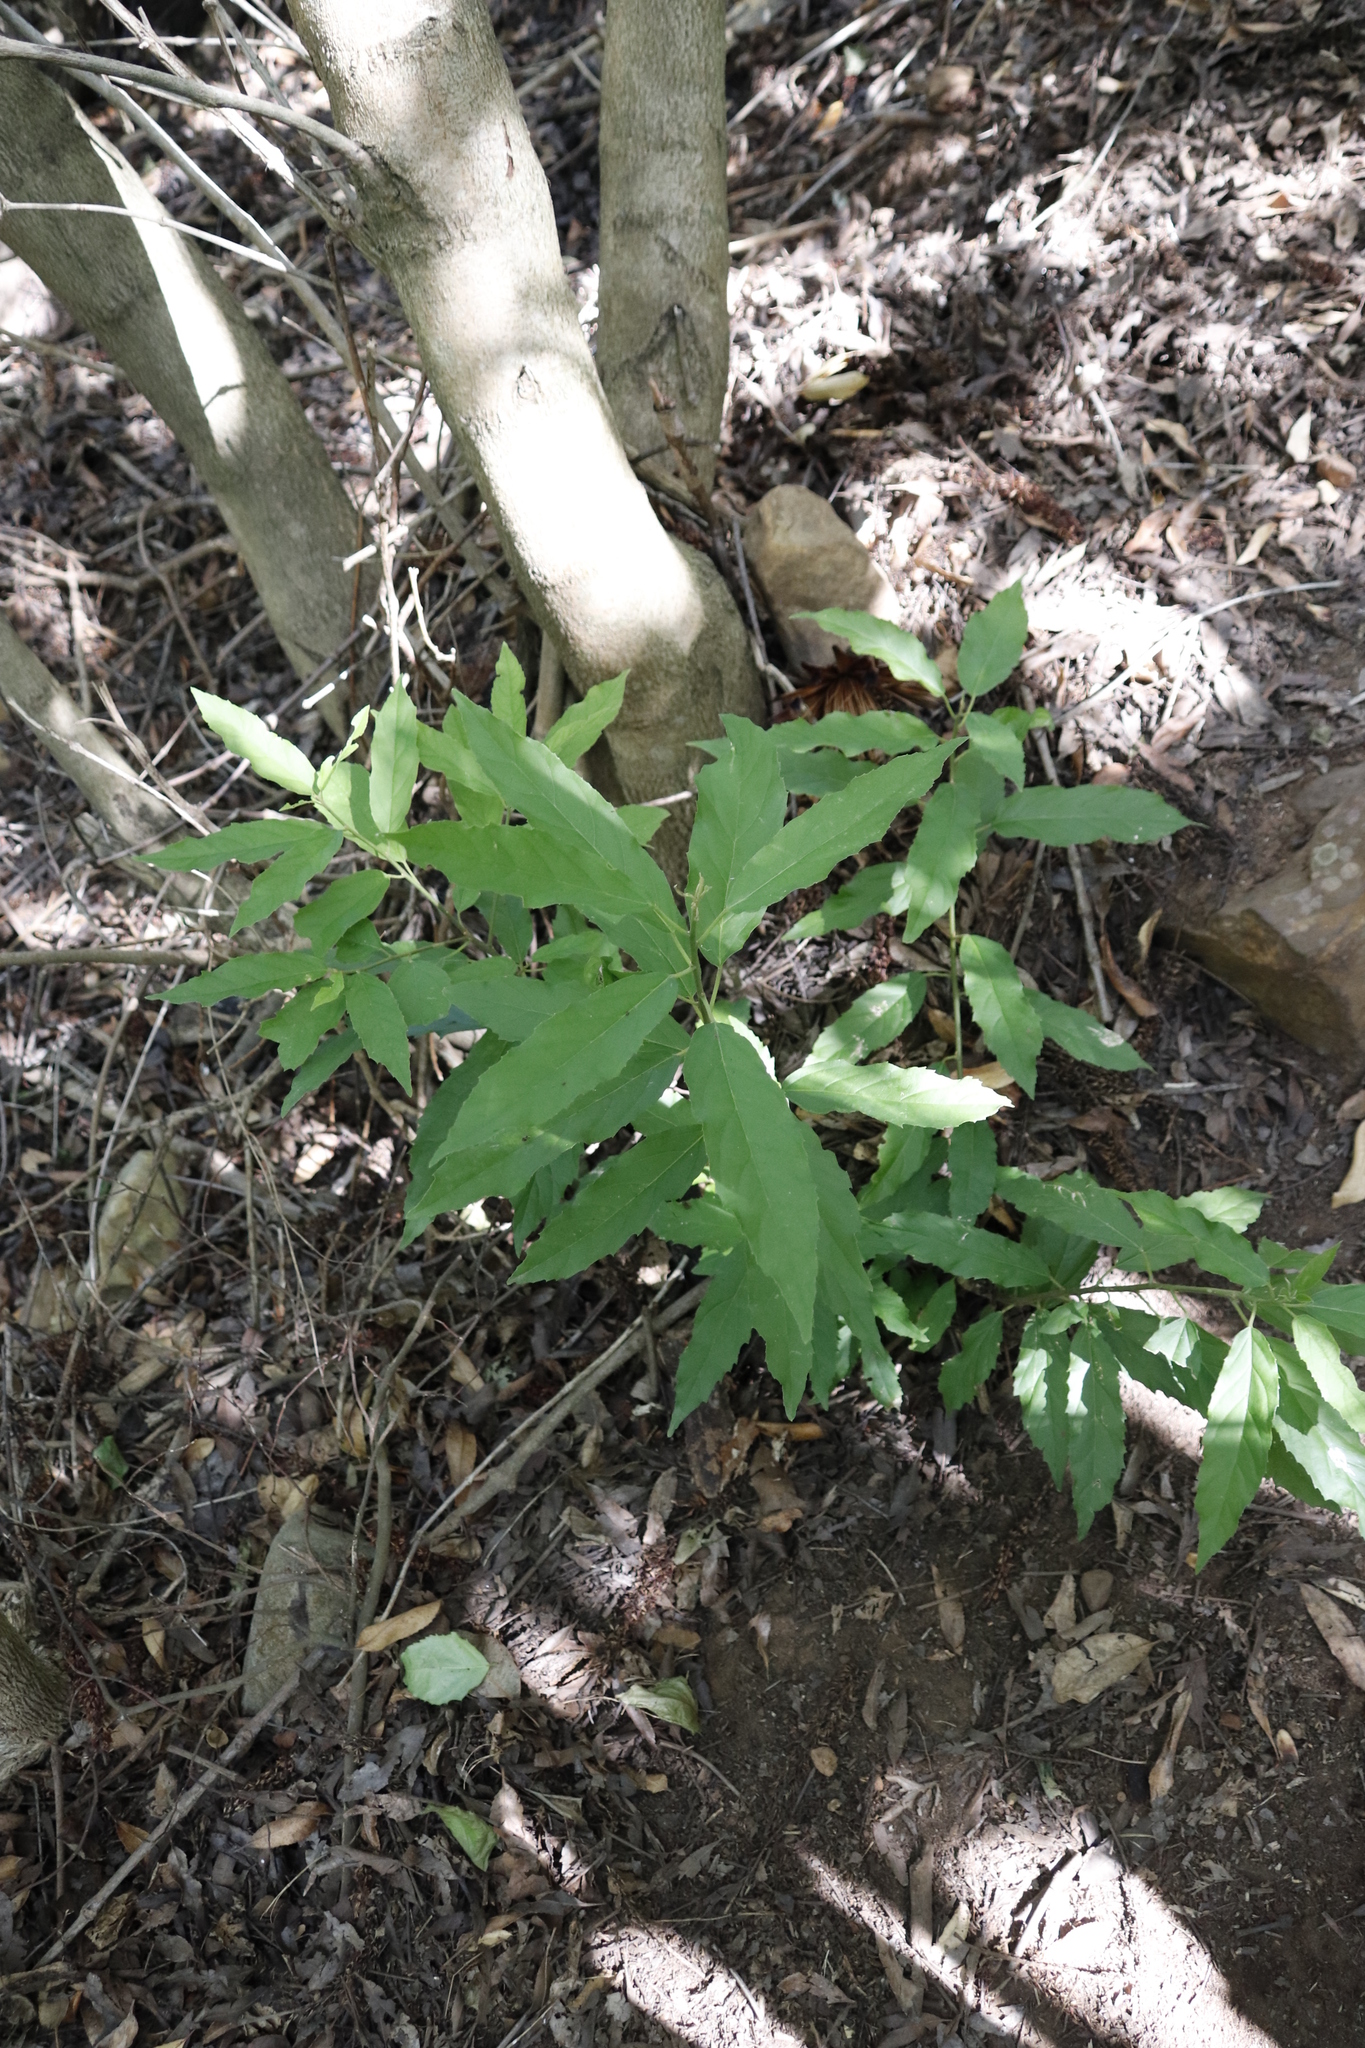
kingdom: Plantae
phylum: Tracheophyta
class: Magnoliopsida
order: Malpighiales
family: Achariaceae
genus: Kiggelaria
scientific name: Kiggelaria africana
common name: Wild peach
